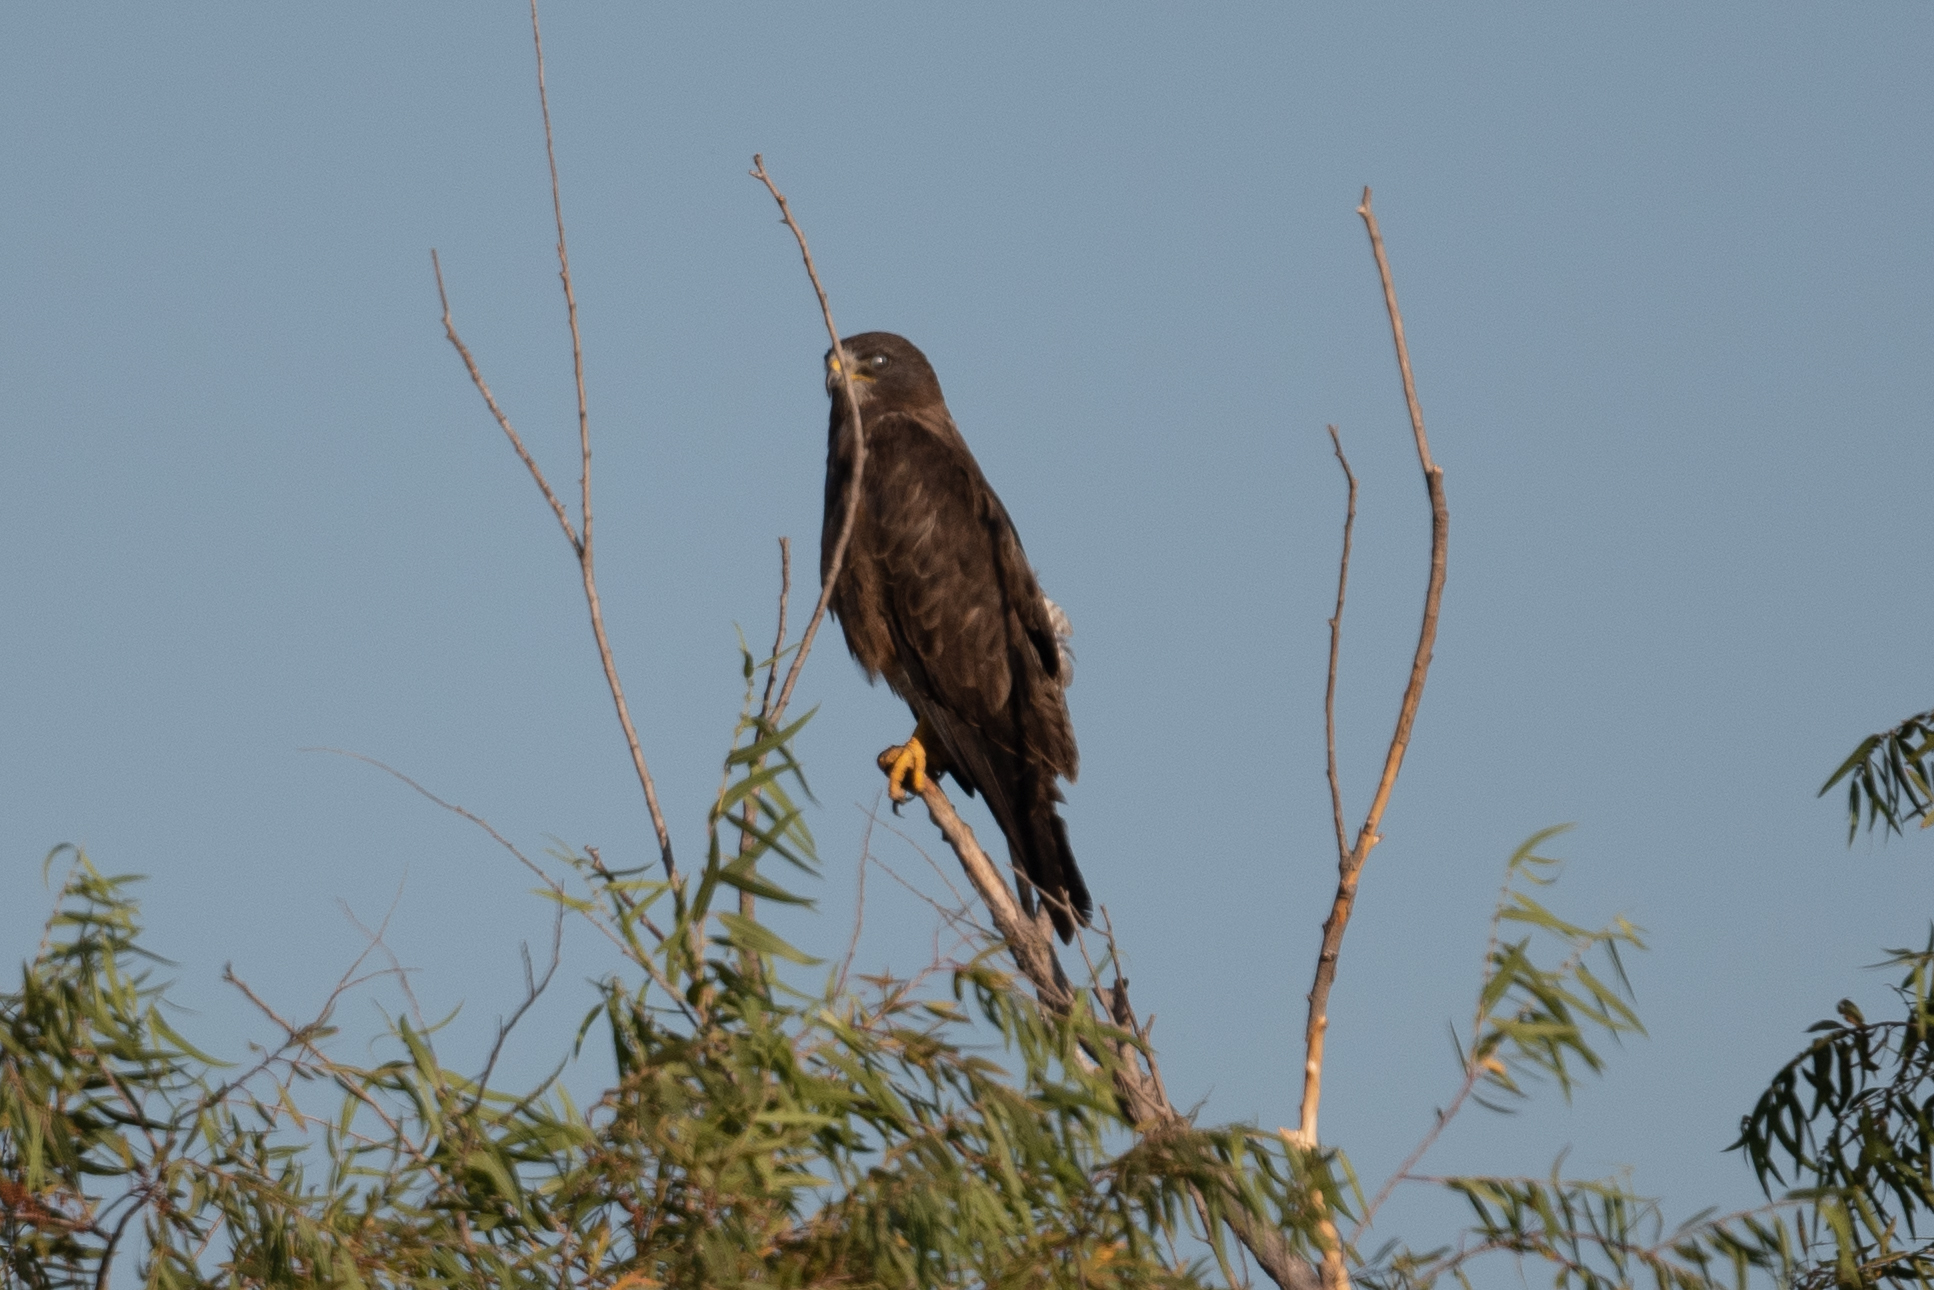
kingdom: Animalia
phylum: Chordata
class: Aves
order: Accipitriformes
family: Accipitridae
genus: Buteo
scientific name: Buteo swainsoni
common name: Swainson's hawk
